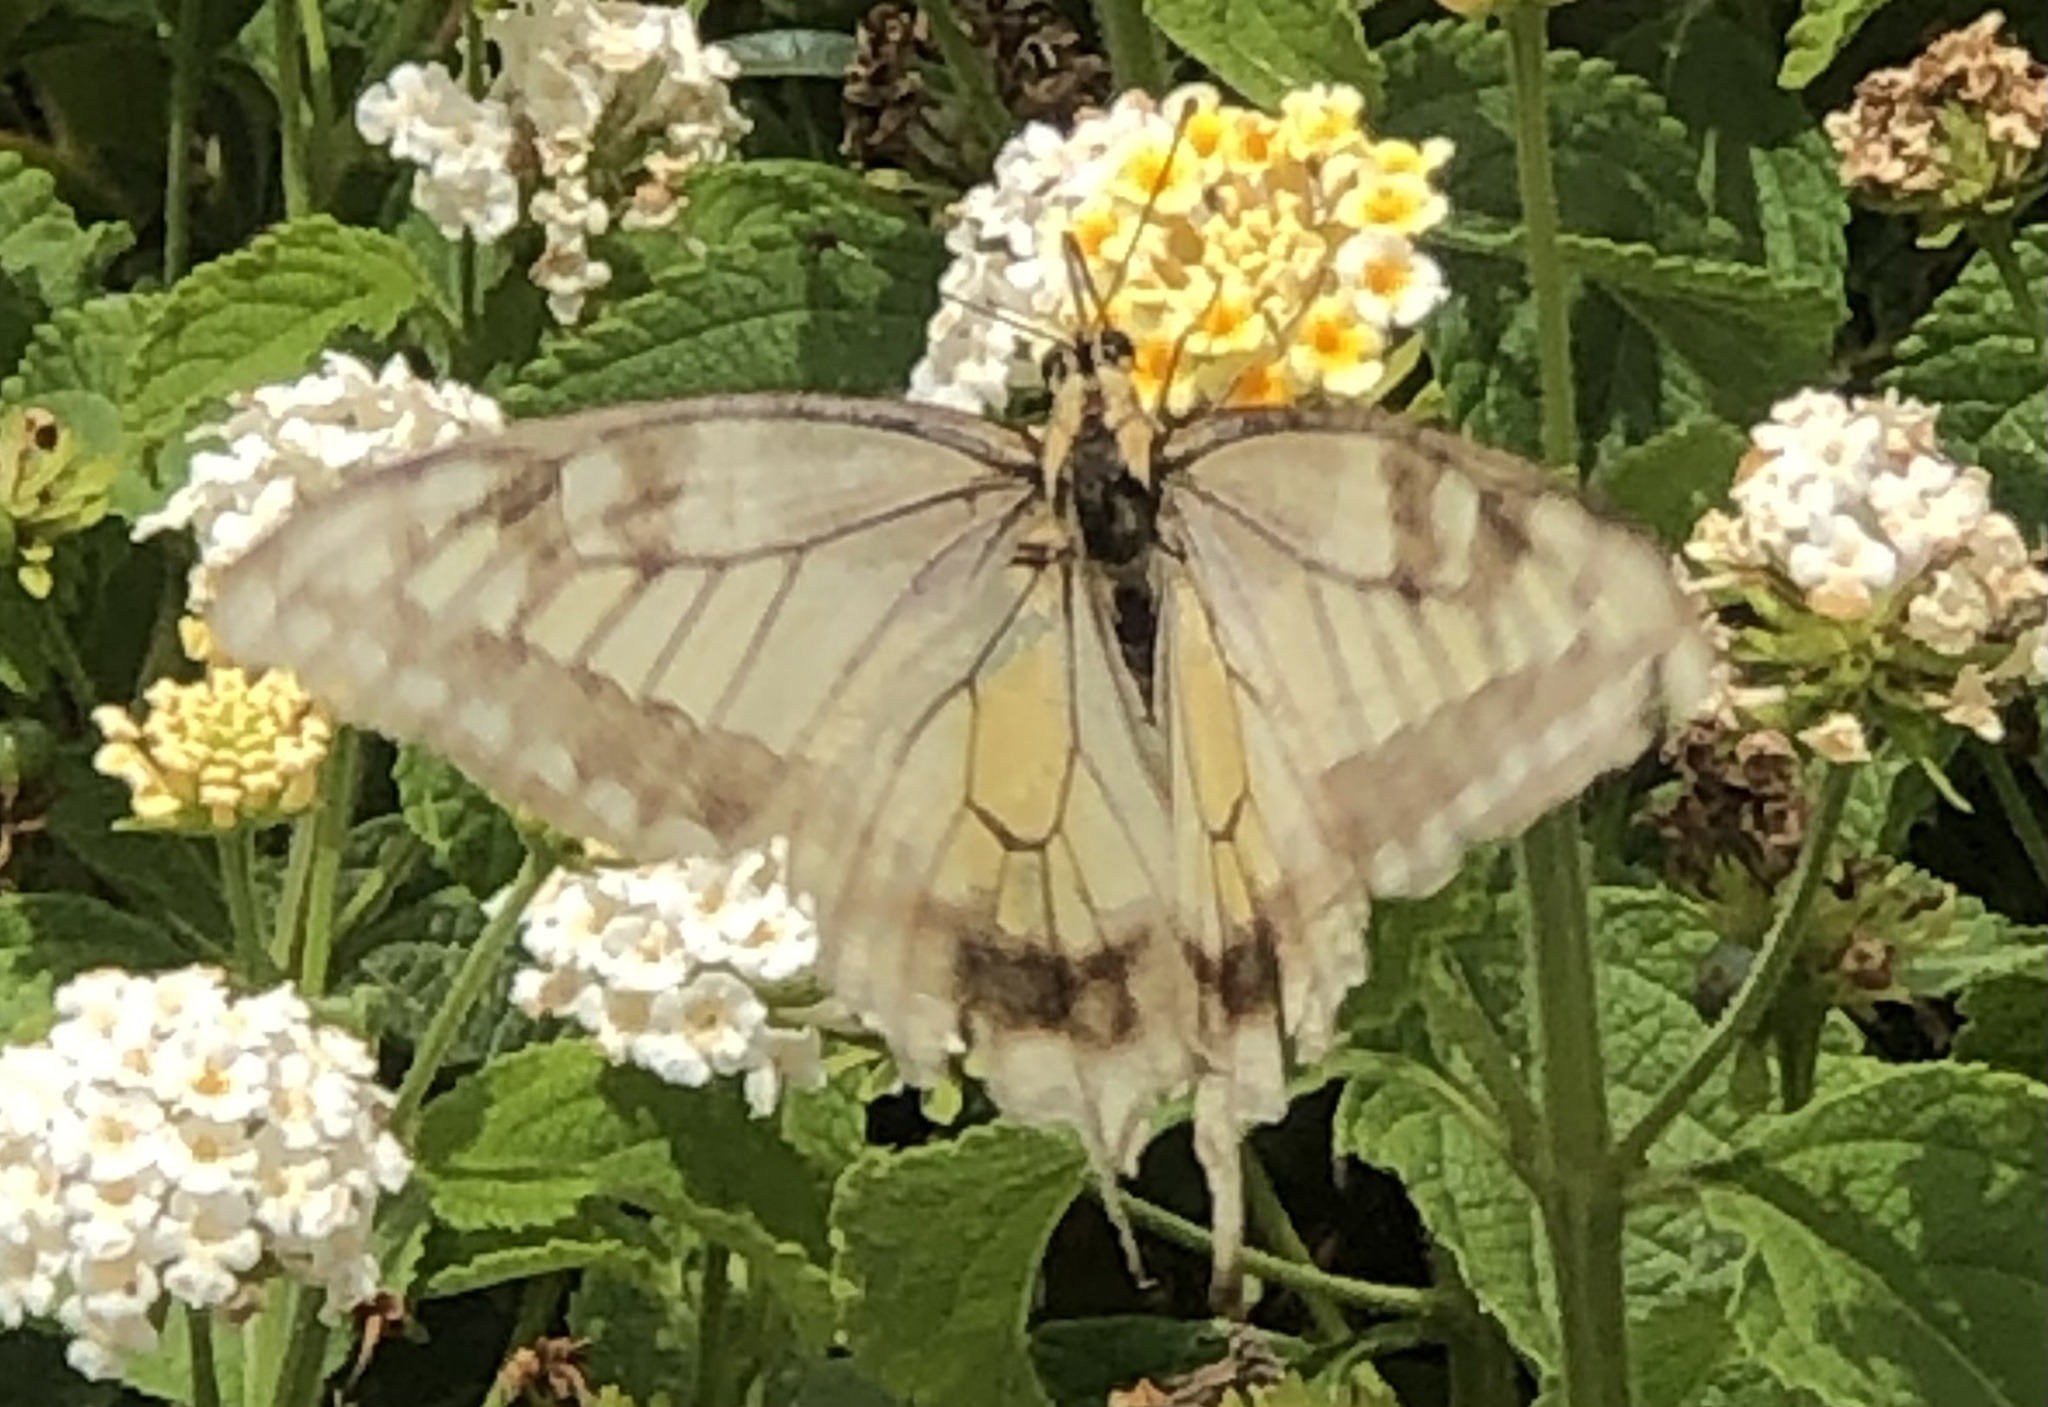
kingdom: Animalia
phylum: Arthropoda
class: Insecta
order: Lepidoptera
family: Papilionidae
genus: Papilio
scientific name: Papilio machaon
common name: Swallowtail
